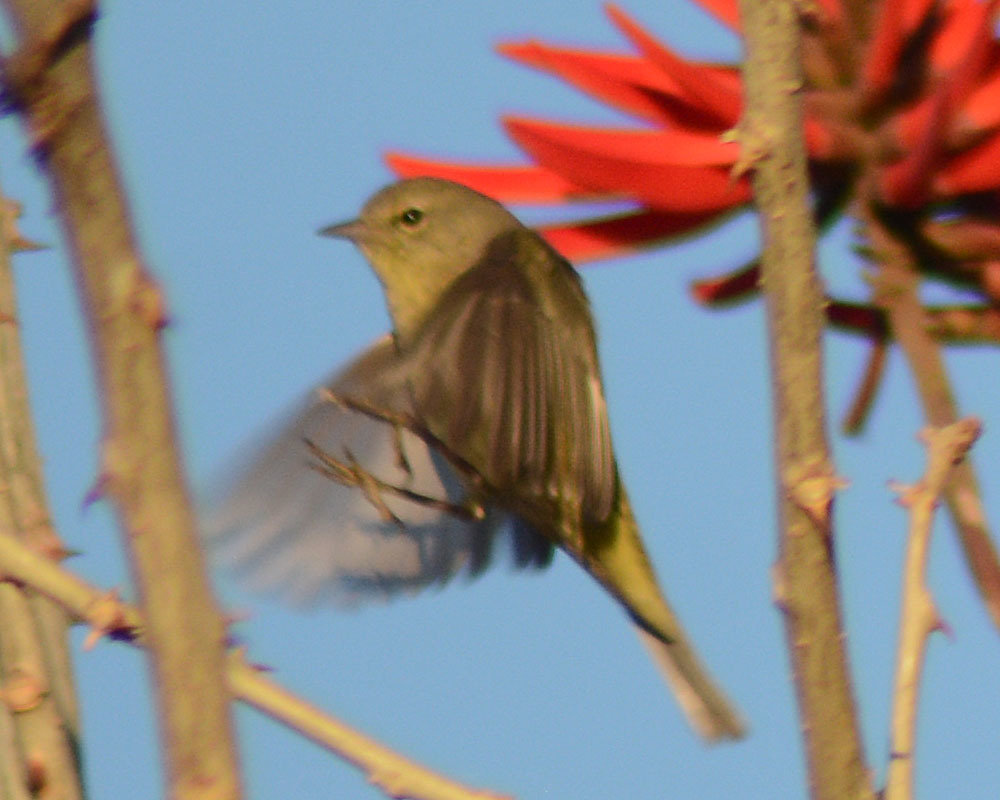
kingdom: Animalia
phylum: Chordata
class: Aves
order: Passeriformes
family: Parulidae
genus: Leiothlypis
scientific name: Leiothlypis celata
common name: Orange-crowned warbler
